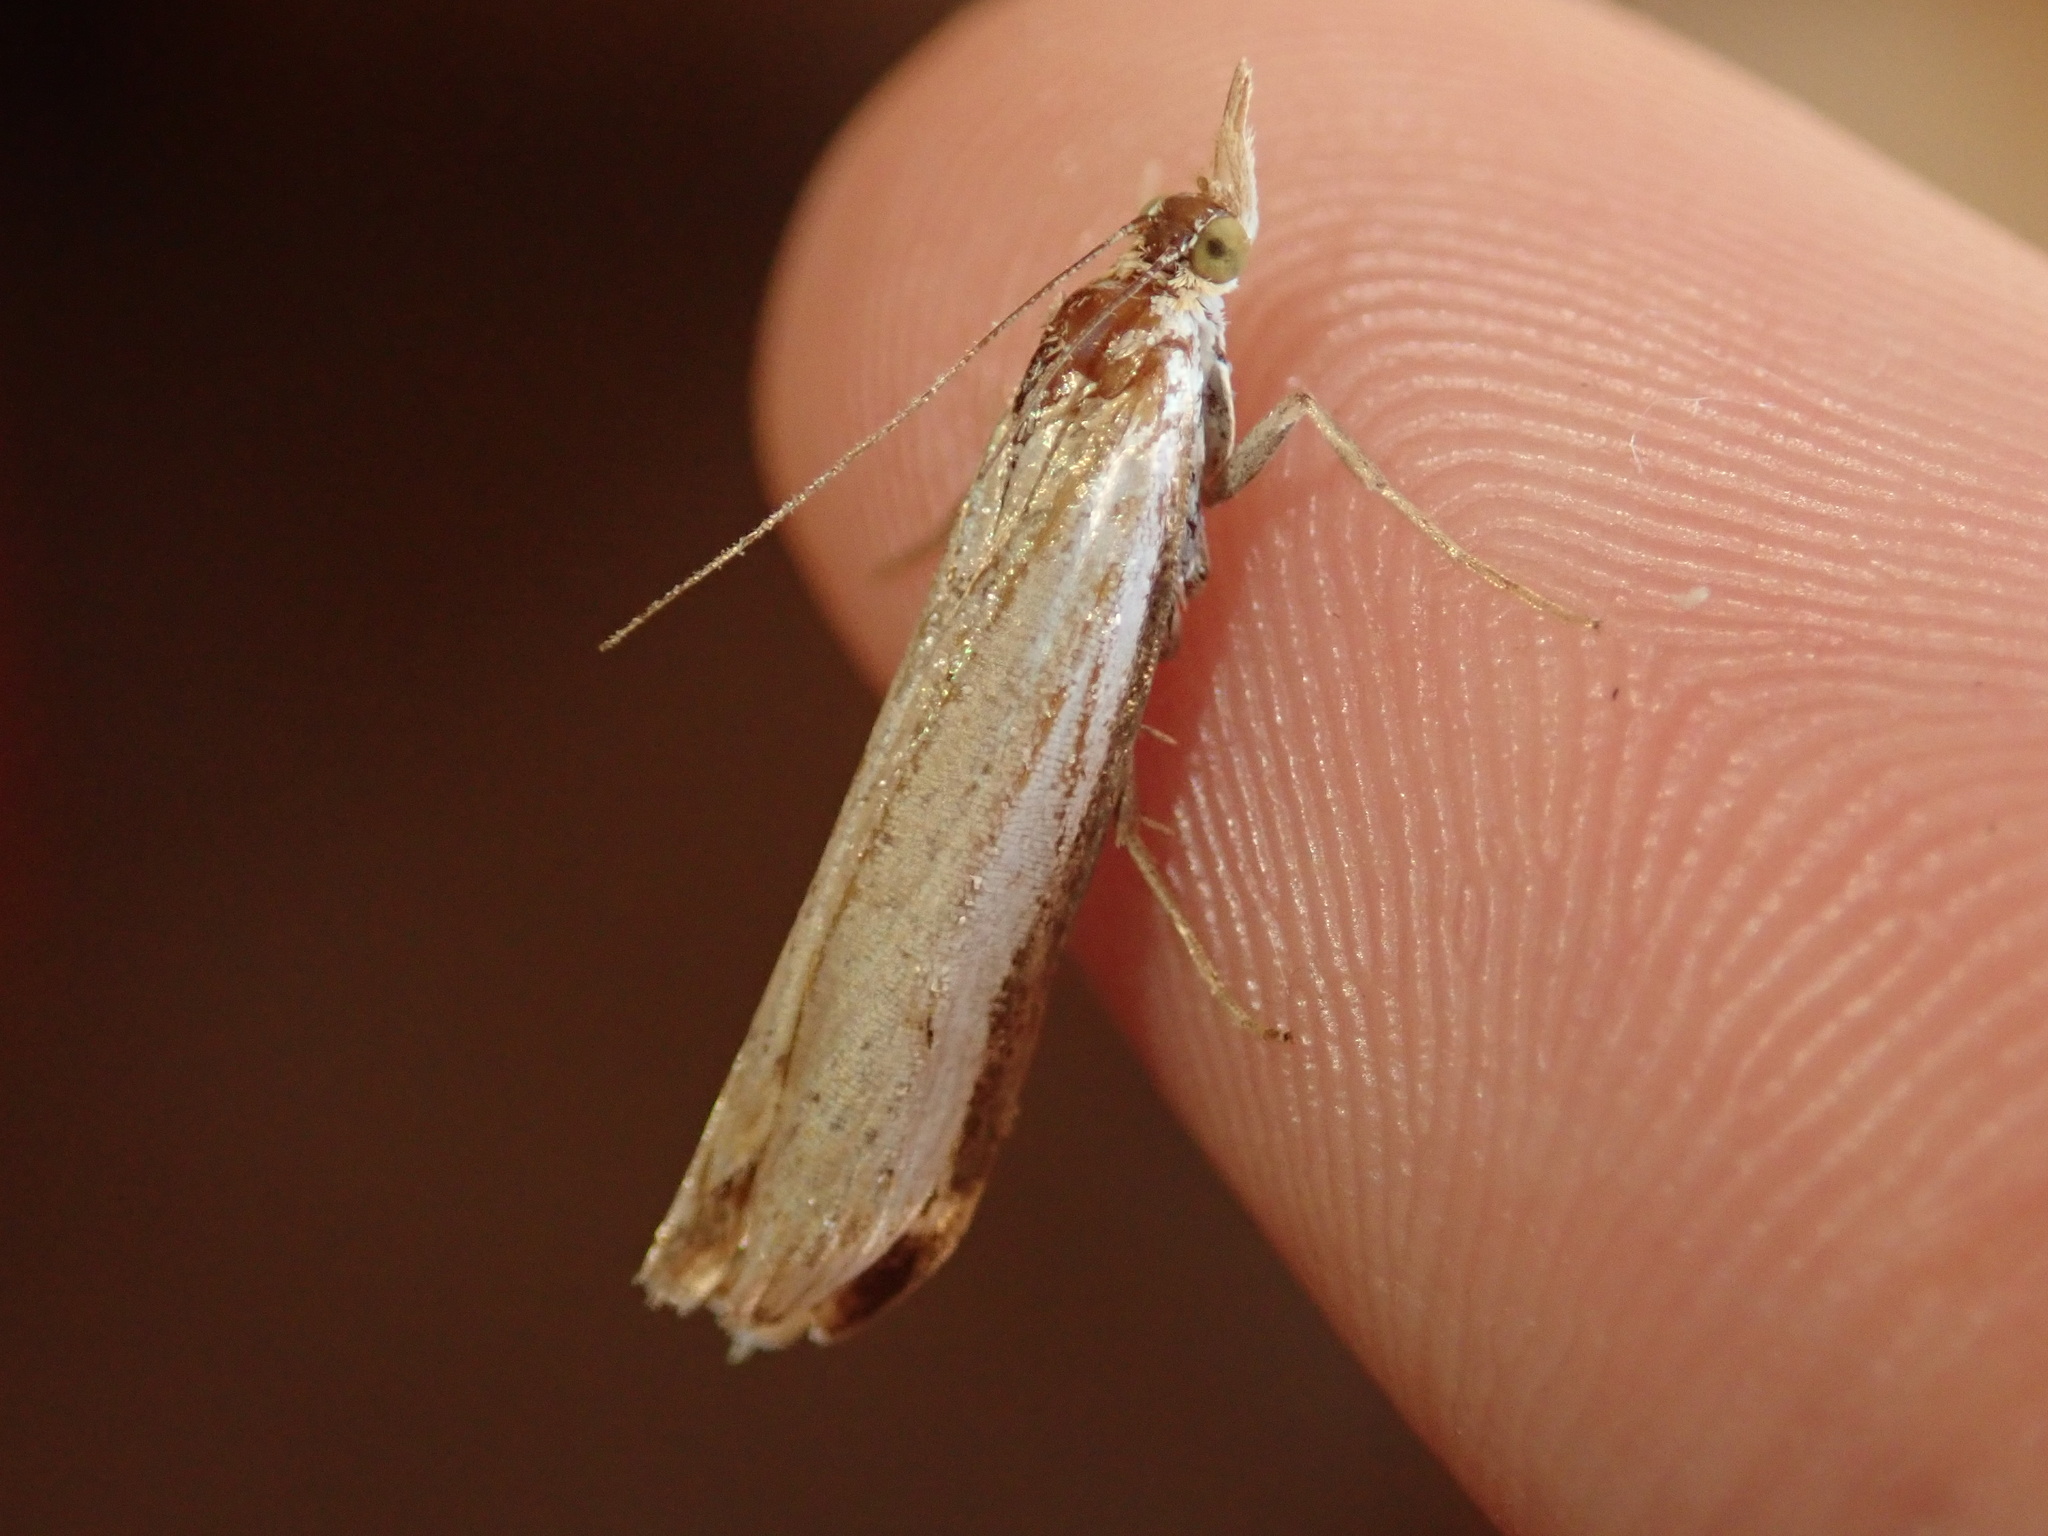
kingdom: Animalia
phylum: Arthropoda
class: Insecta
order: Lepidoptera
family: Crambidae
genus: Orocrambus
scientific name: Orocrambus flexuosellus
